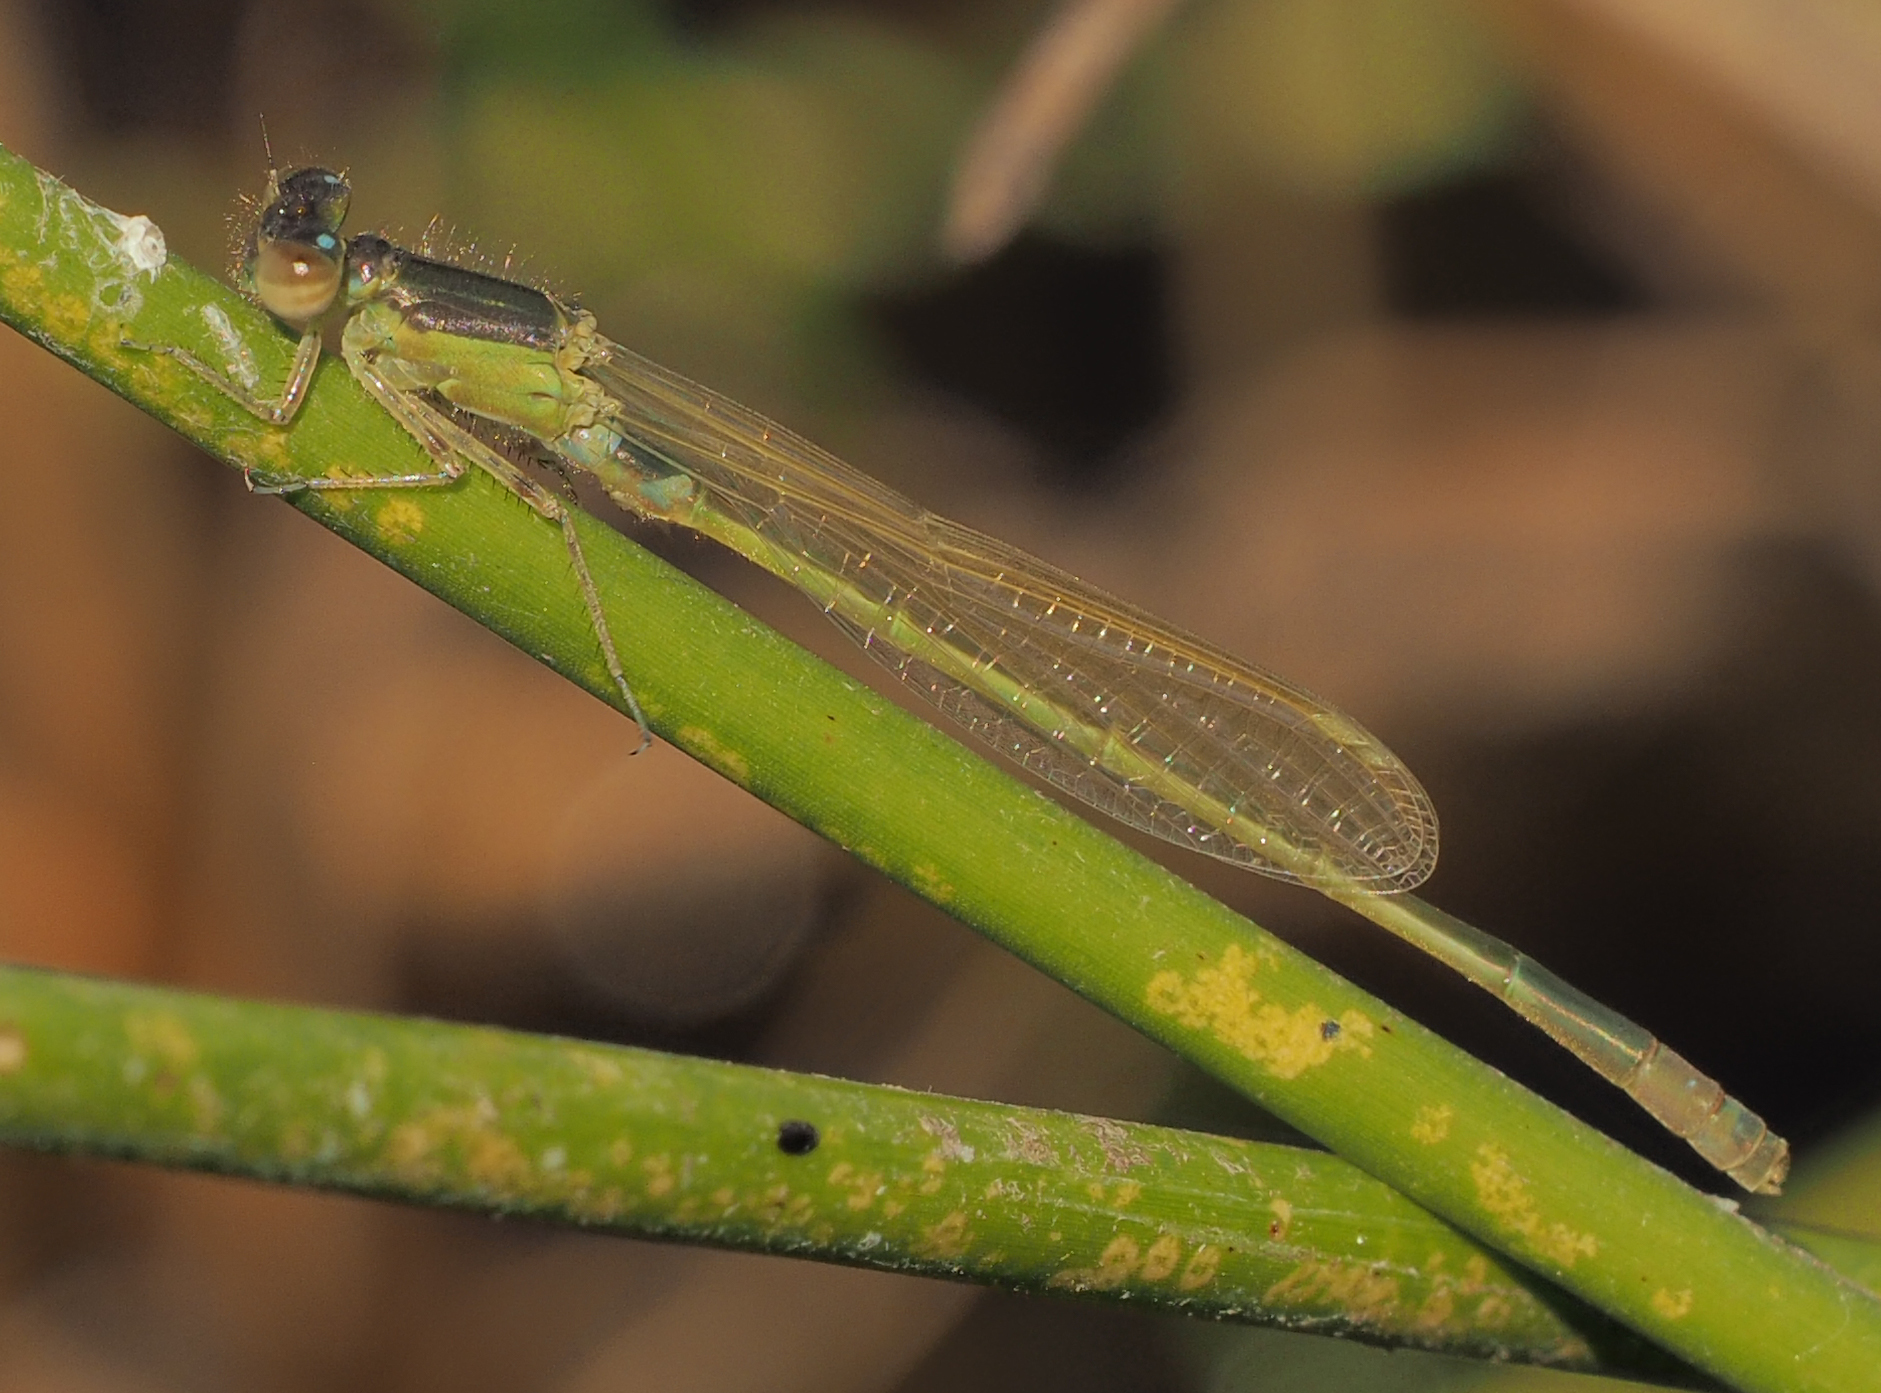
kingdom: Animalia
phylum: Arthropoda
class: Insecta
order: Odonata
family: Coenagrionidae
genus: Ischnura
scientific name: Ischnura senegalensis
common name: Tropical bluetail
